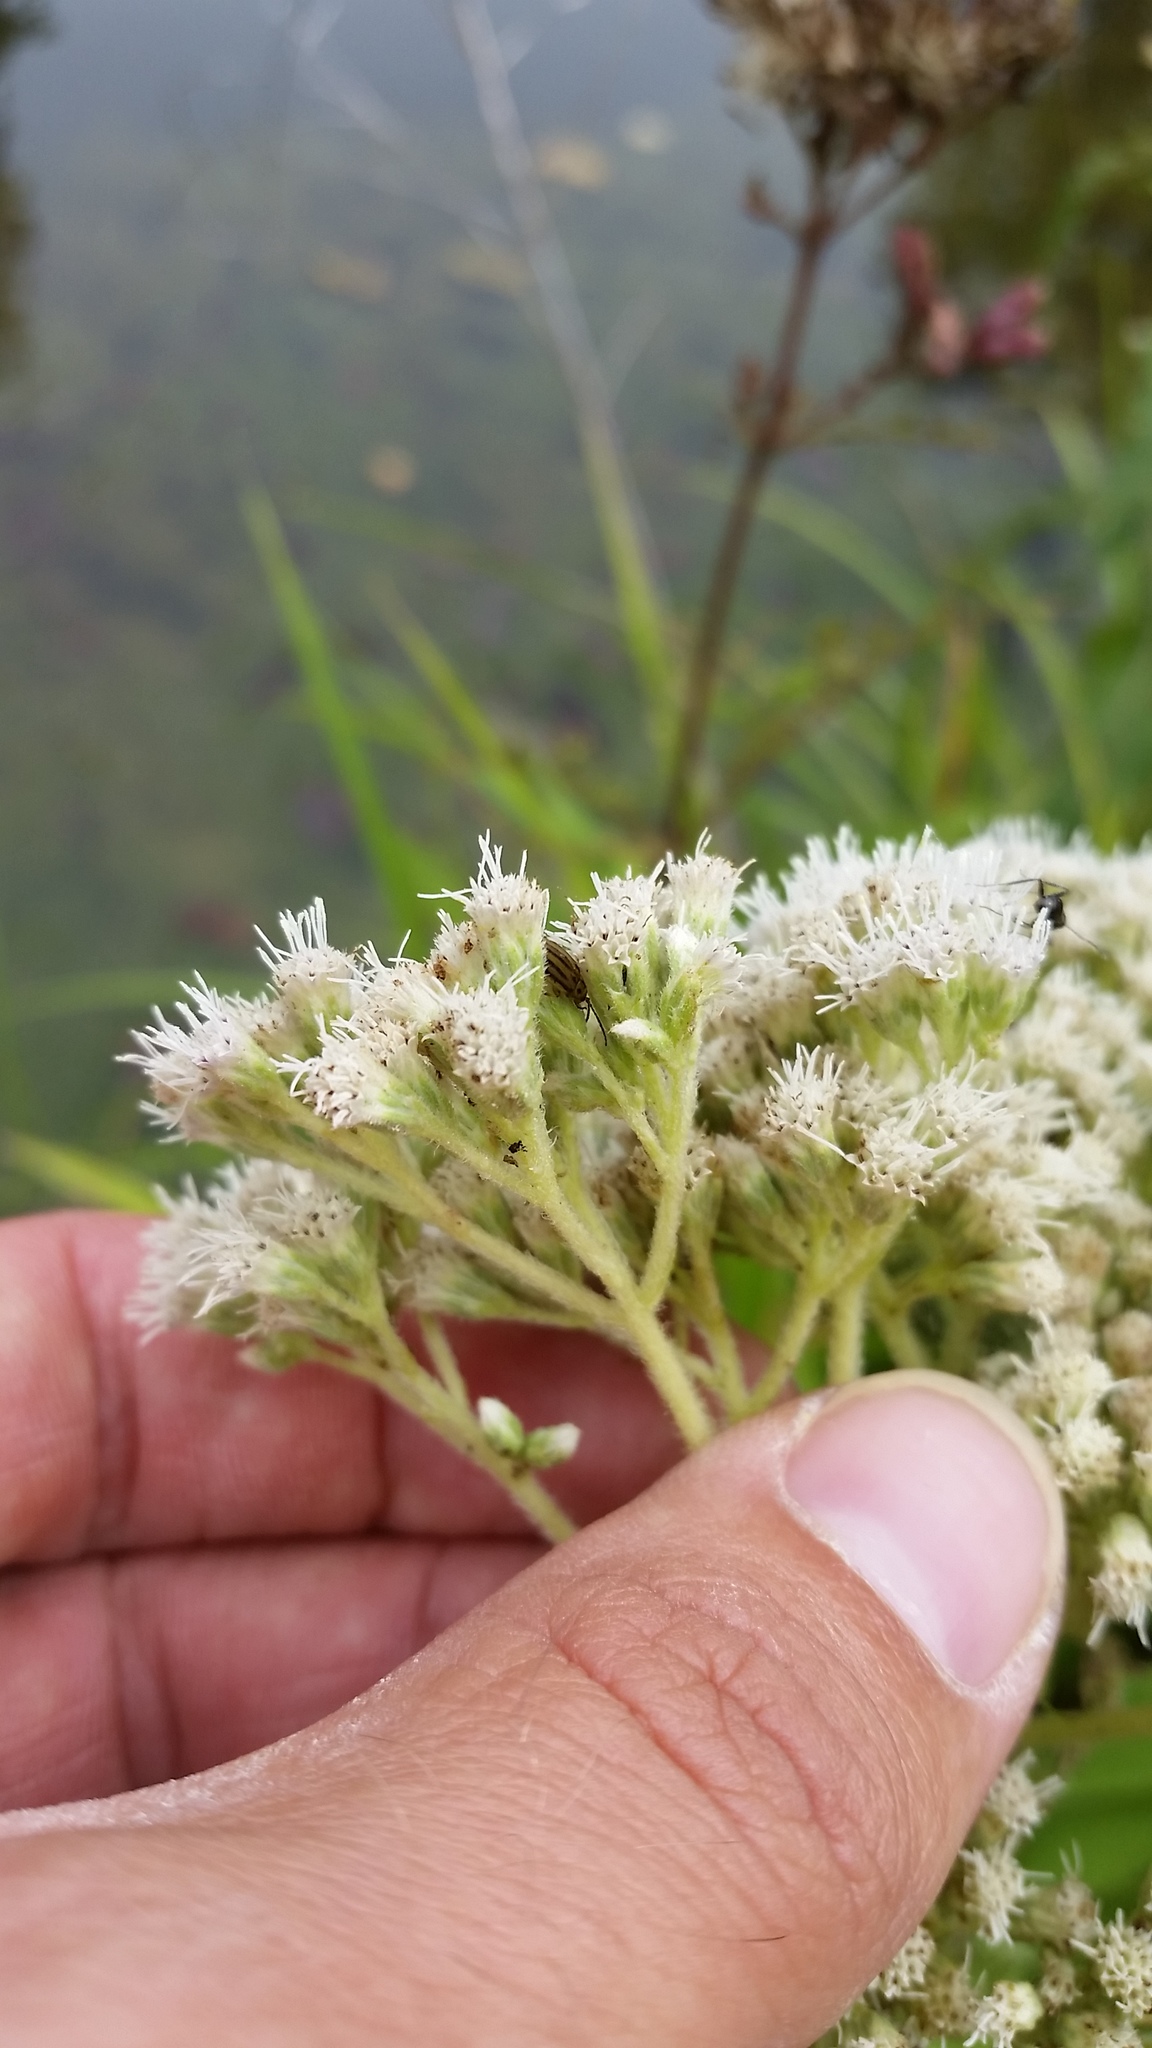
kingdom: Plantae
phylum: Tracheophyta
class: Magnoliopsida
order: Asterales
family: Asteraceae
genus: Eupatorium
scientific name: Eupatorium perfoliatum
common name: Boneset
